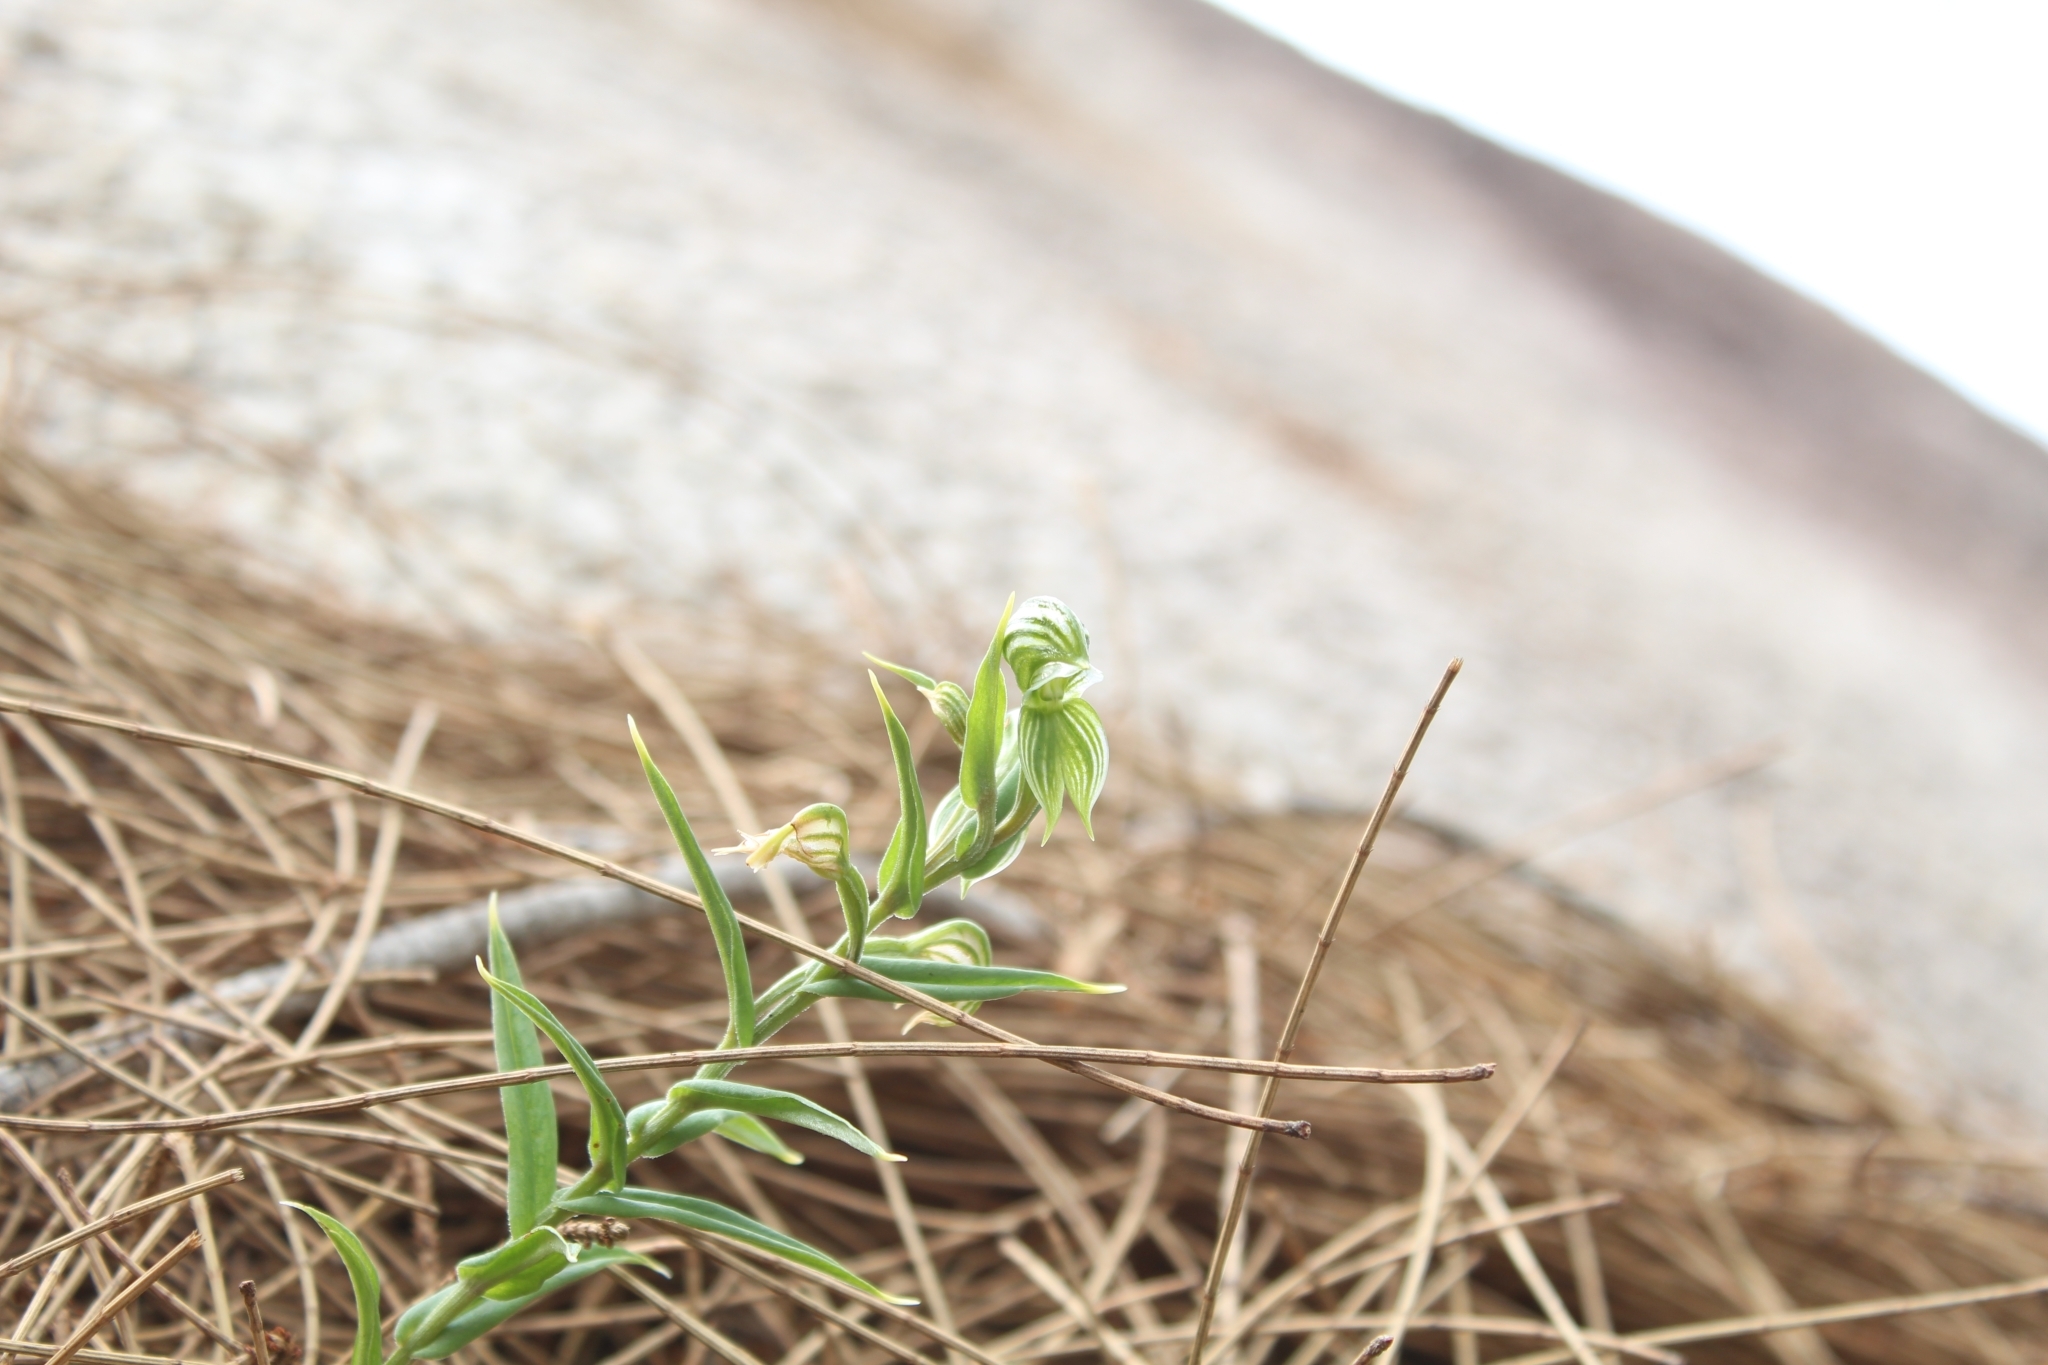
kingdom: Plantae
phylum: Tracheophyta
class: Liliopsida
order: Asparagales
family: Orchidaceae
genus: Pterostylis
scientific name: Pterostylis vittata
